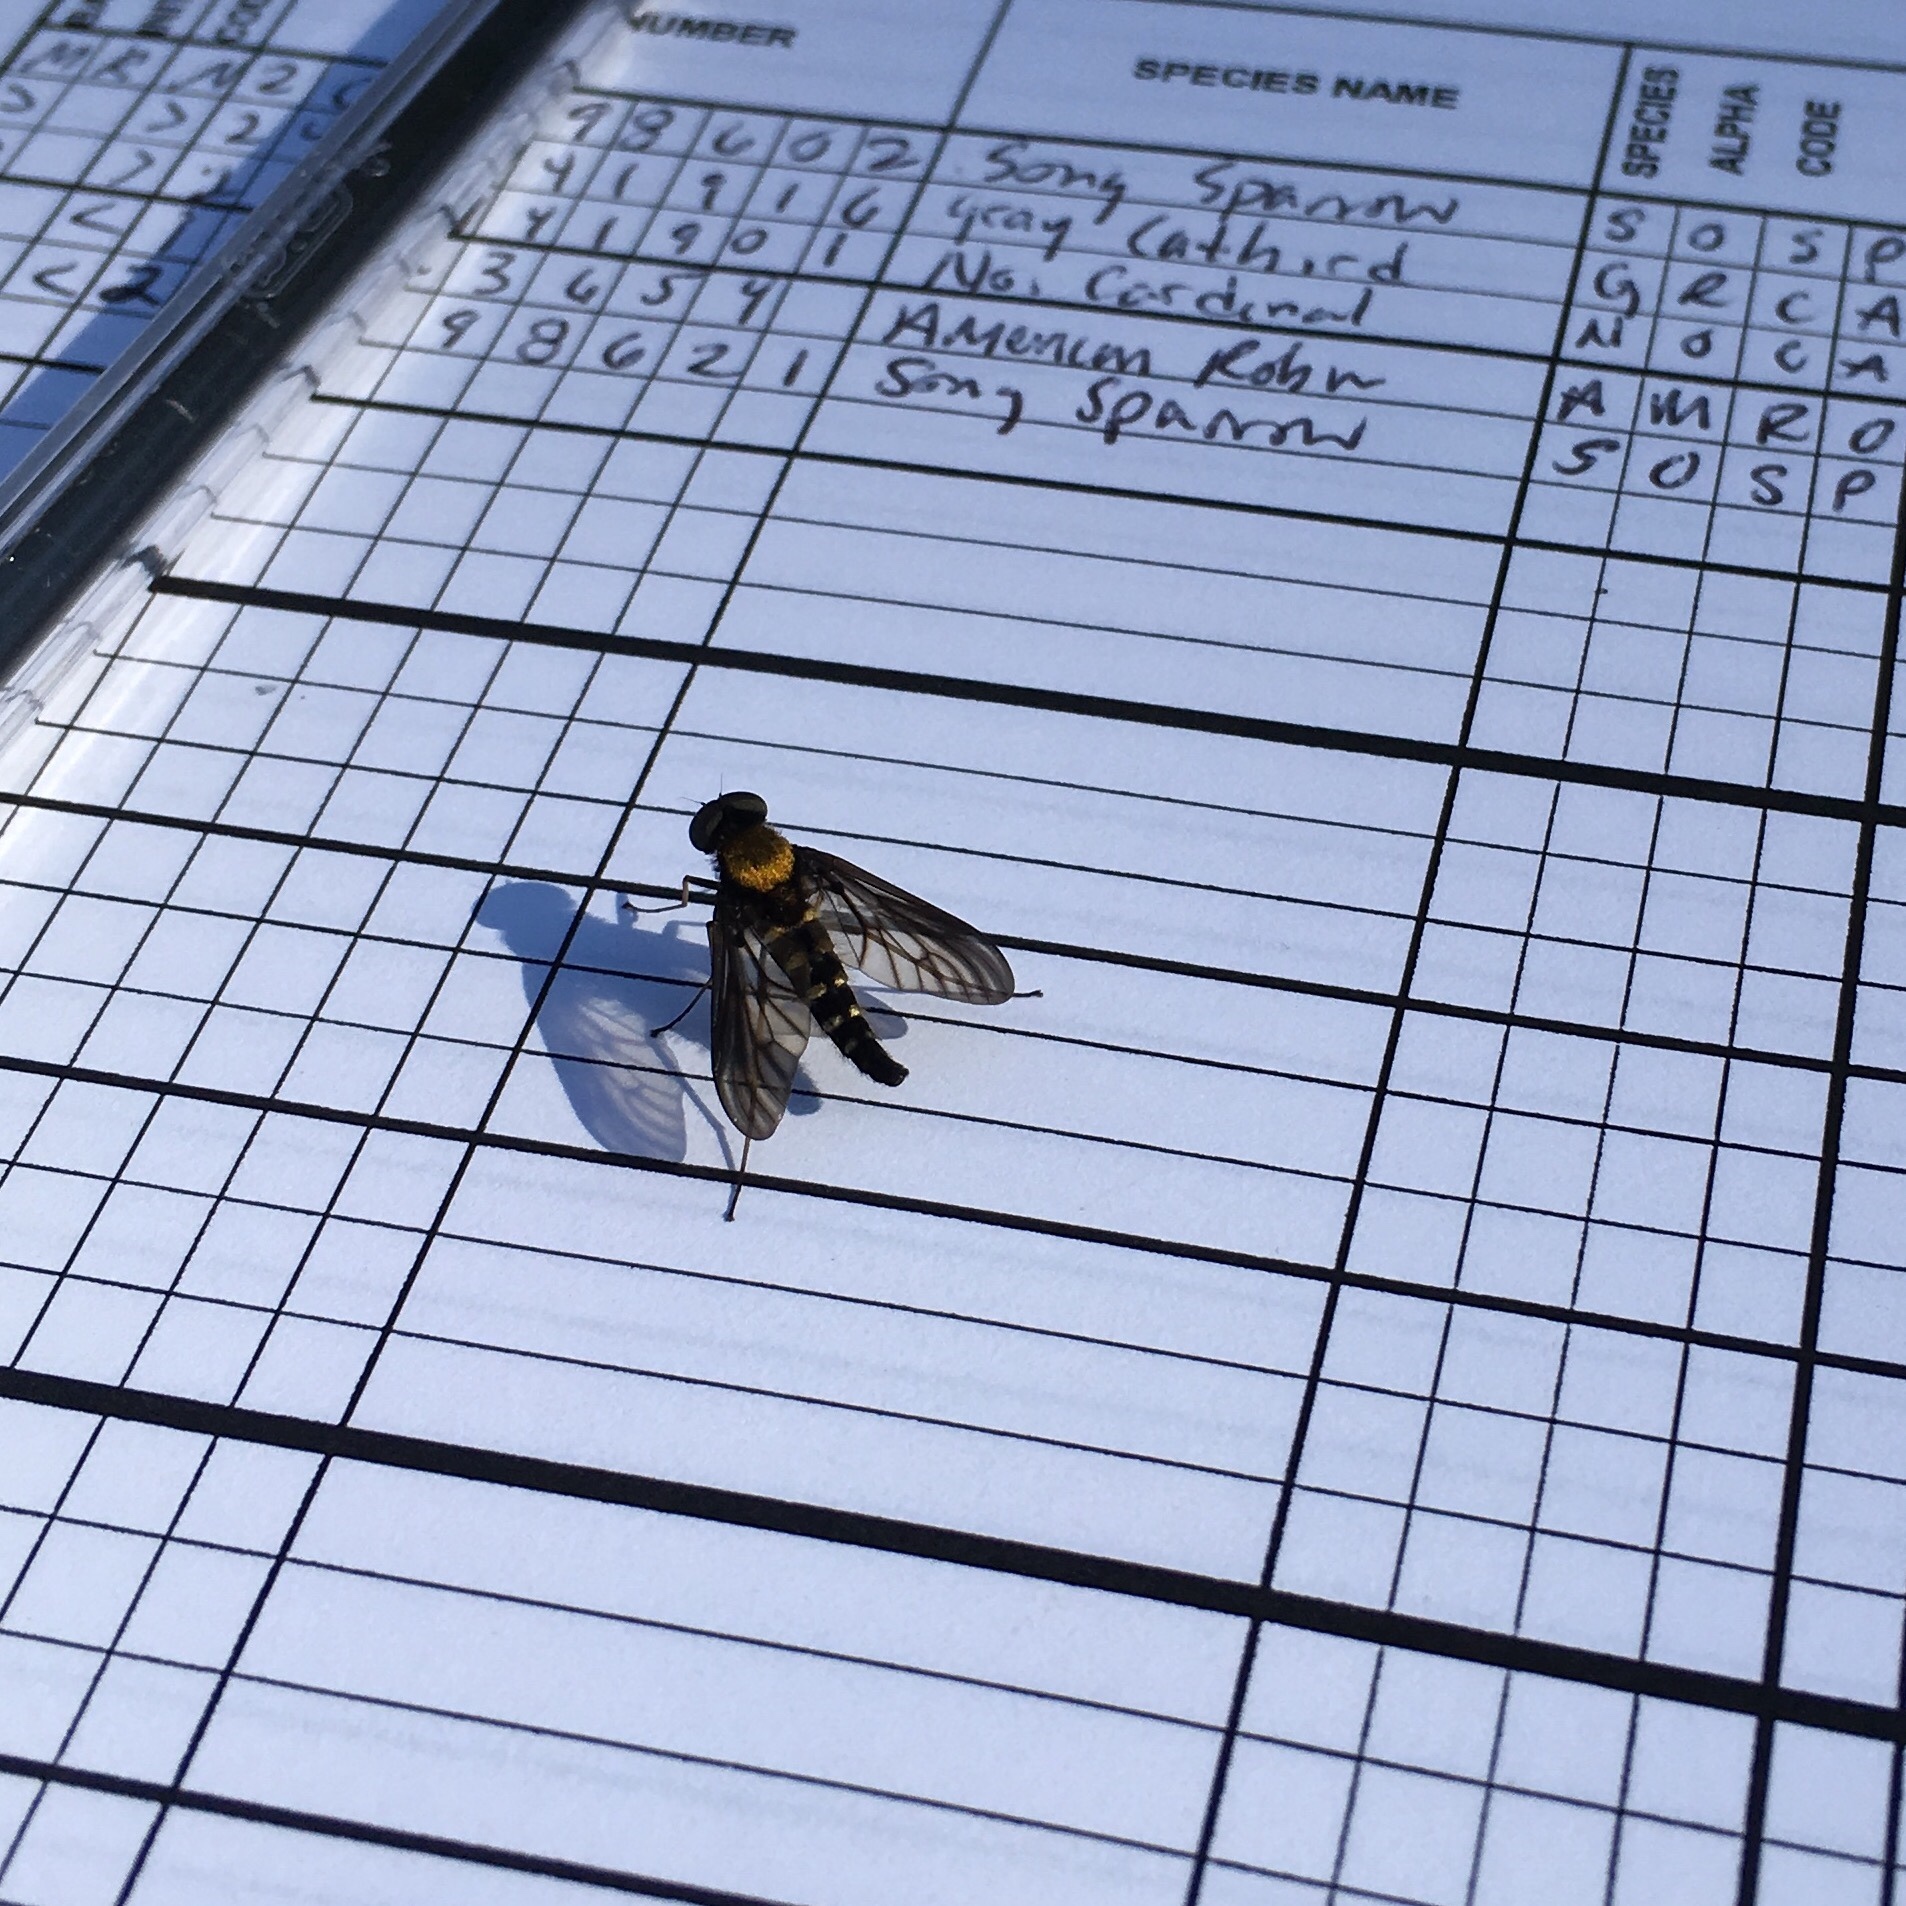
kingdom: Animalia
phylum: Arthropoda
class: Insecta
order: Diptera
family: Rhagionidae
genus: Chrysopilus
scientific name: Chrysopilus thoracicus
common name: Golden-backed snipe fly
